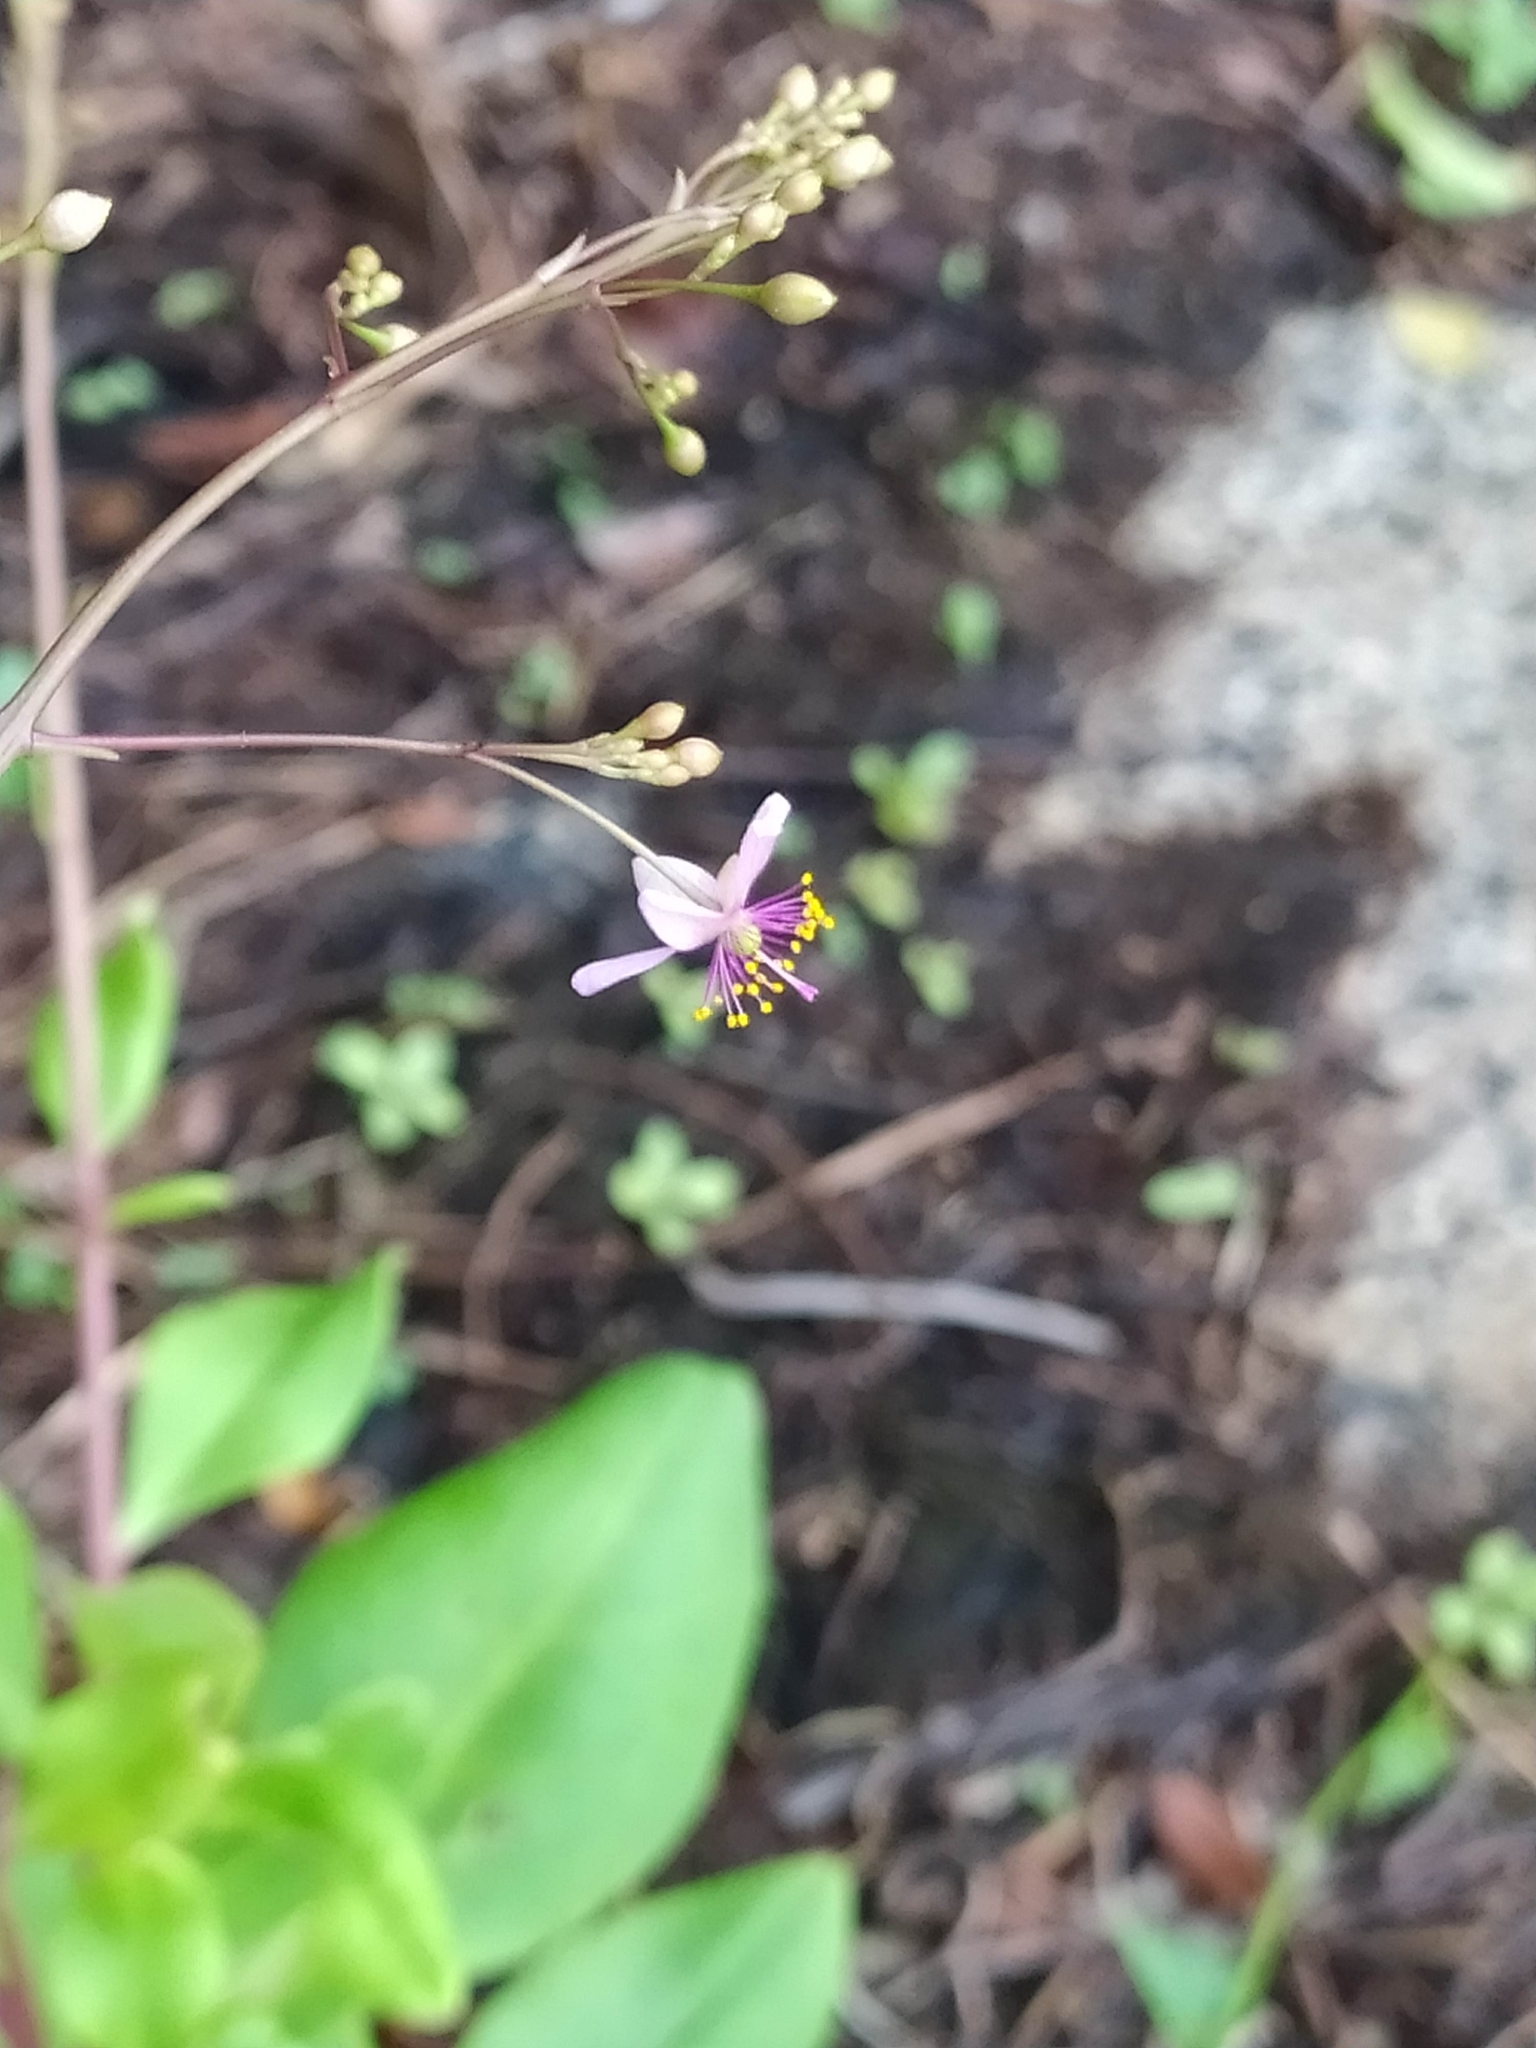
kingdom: Plantae
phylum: Tracheophyta
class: Magnoliopsida
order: Caryophyllales
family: Talinaceae
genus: Talinum
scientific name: Talinum paniculatum
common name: Jewels of opar
